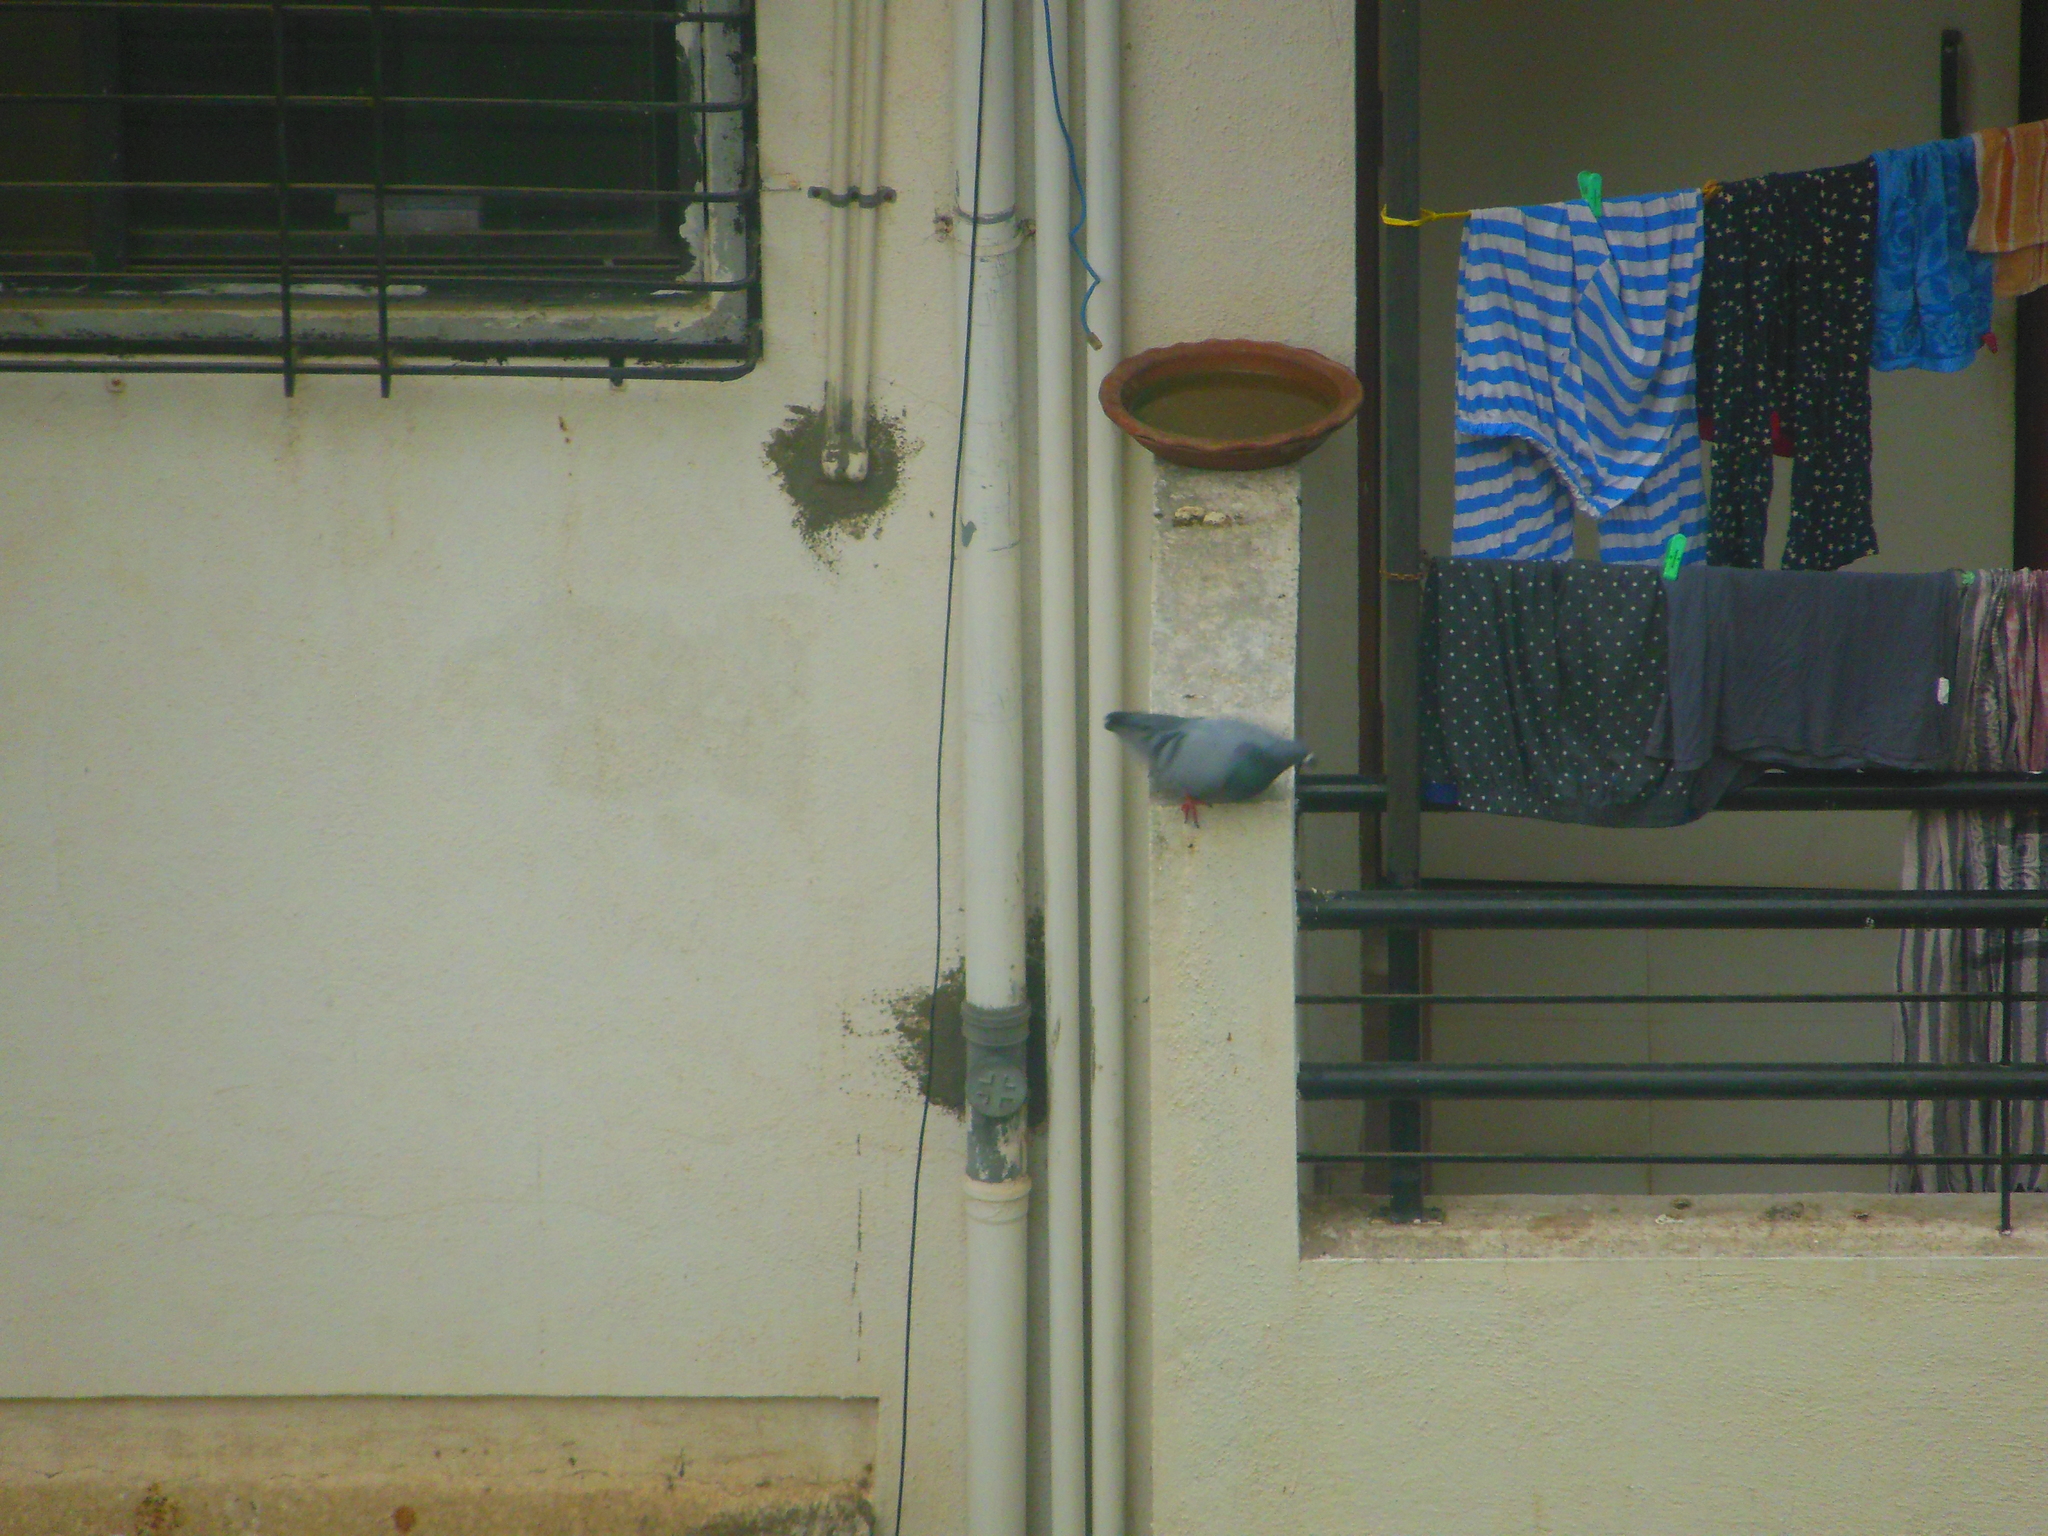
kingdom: Animalia
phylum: Chordata
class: Aves
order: Columbiformes
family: Columbidae
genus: Columba
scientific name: Columba livia
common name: Rock pigeon
